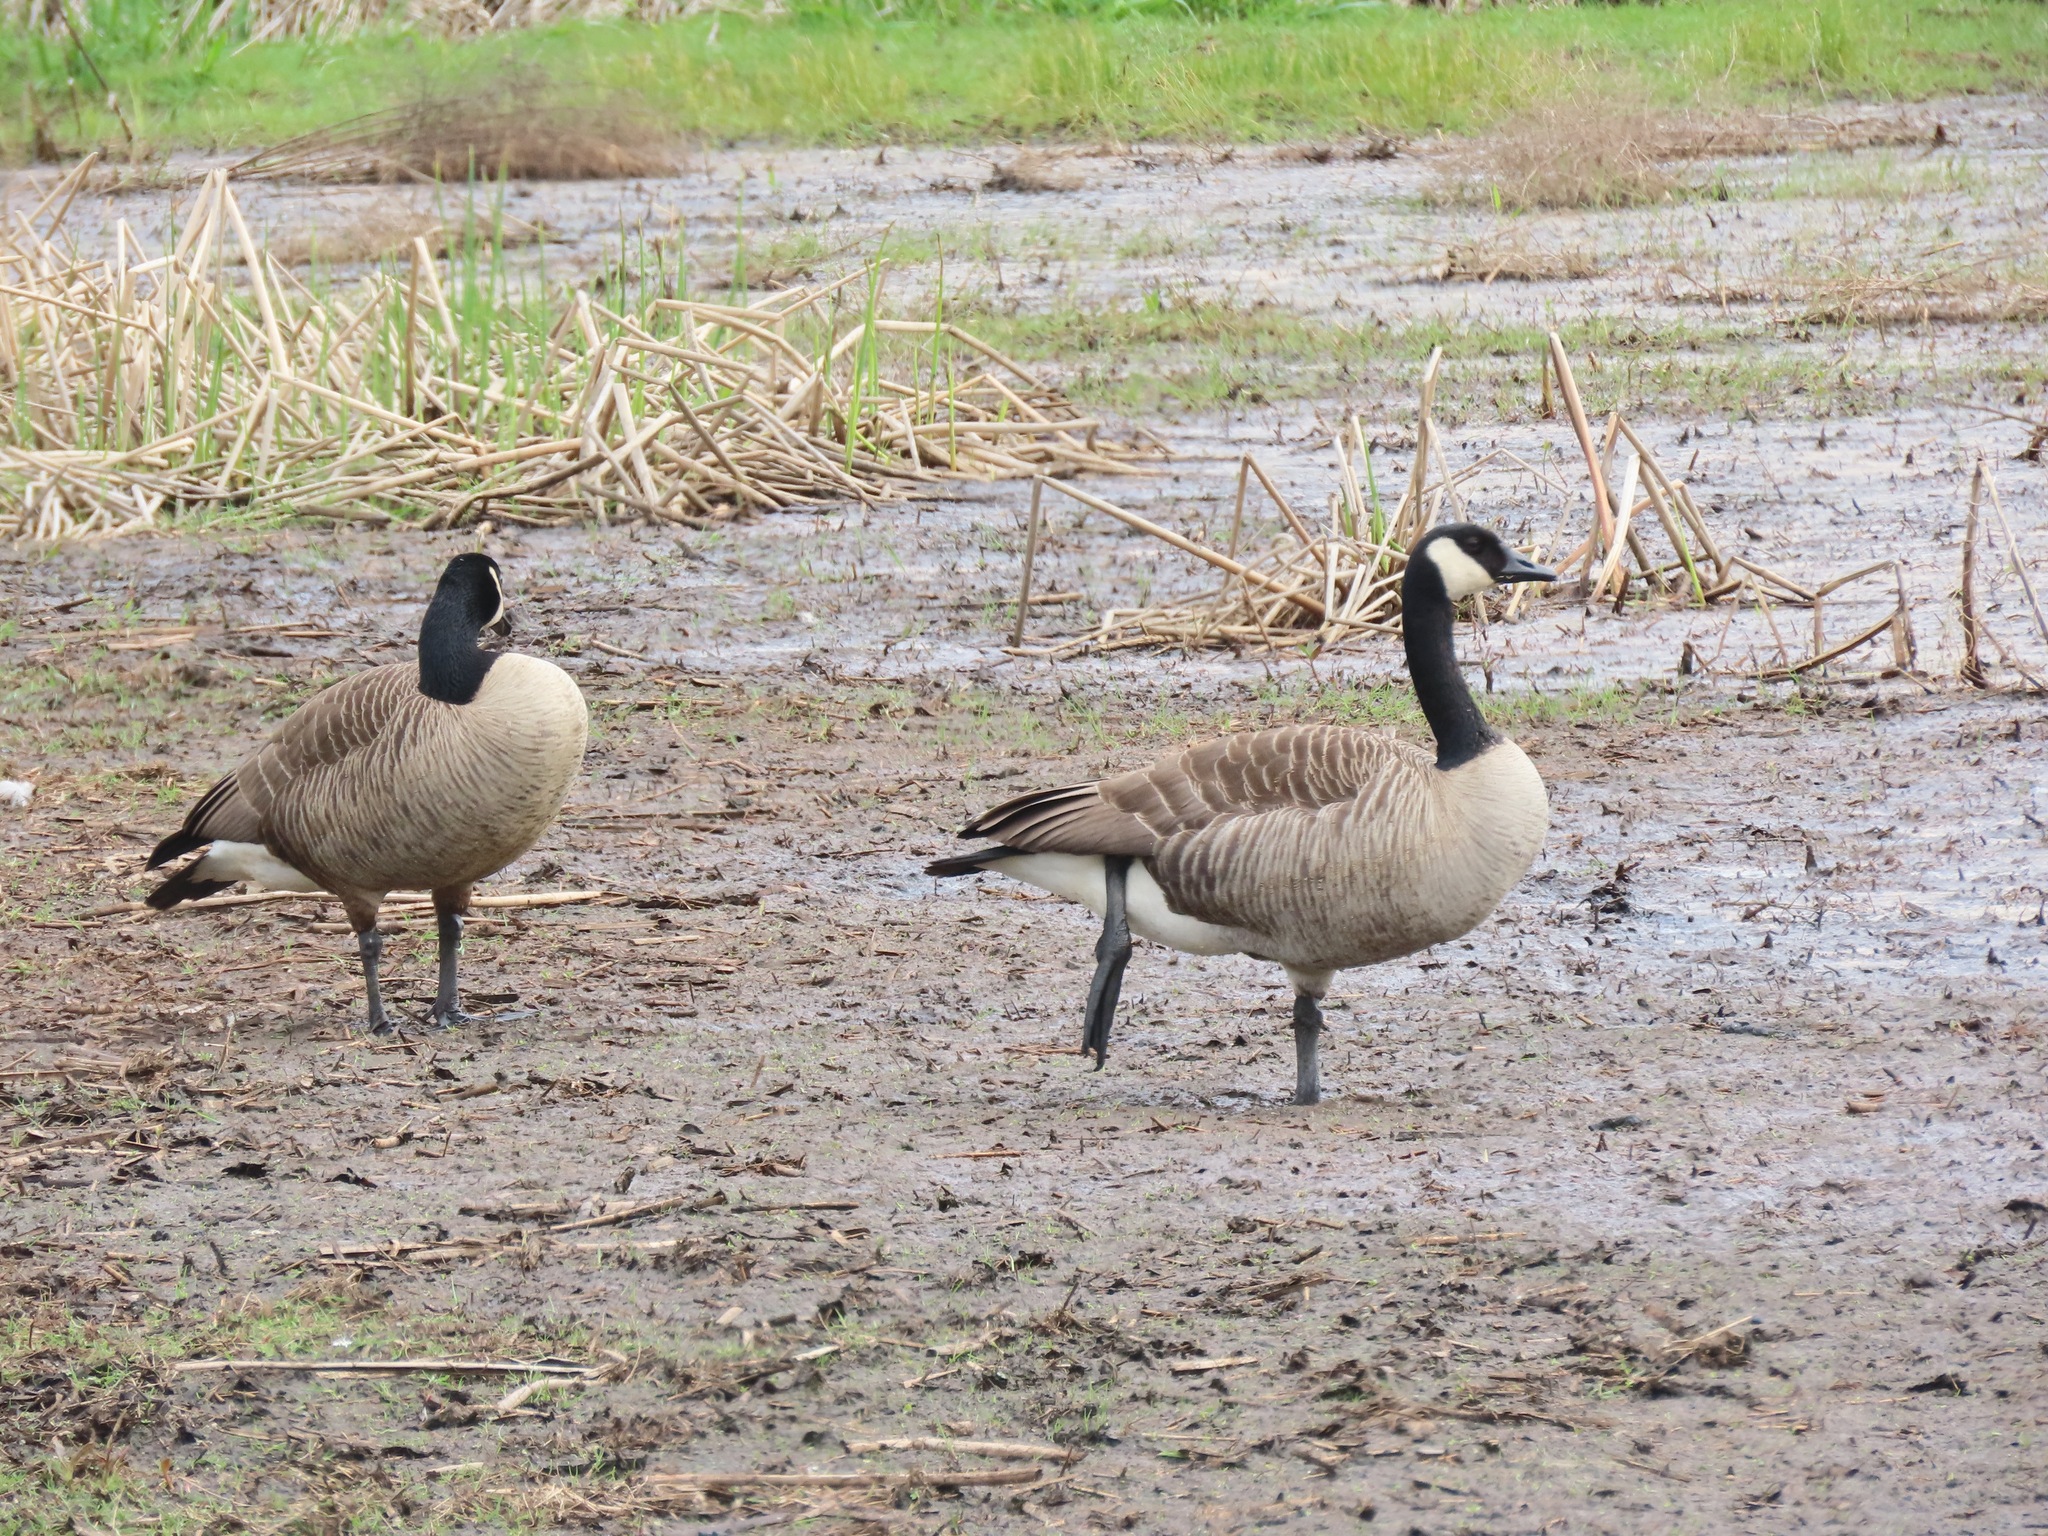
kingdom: Animalia
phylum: Chordata
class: Aves
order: Anseriformes
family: Anatidae
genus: Branta
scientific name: Branta canadensis
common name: Canada goose
